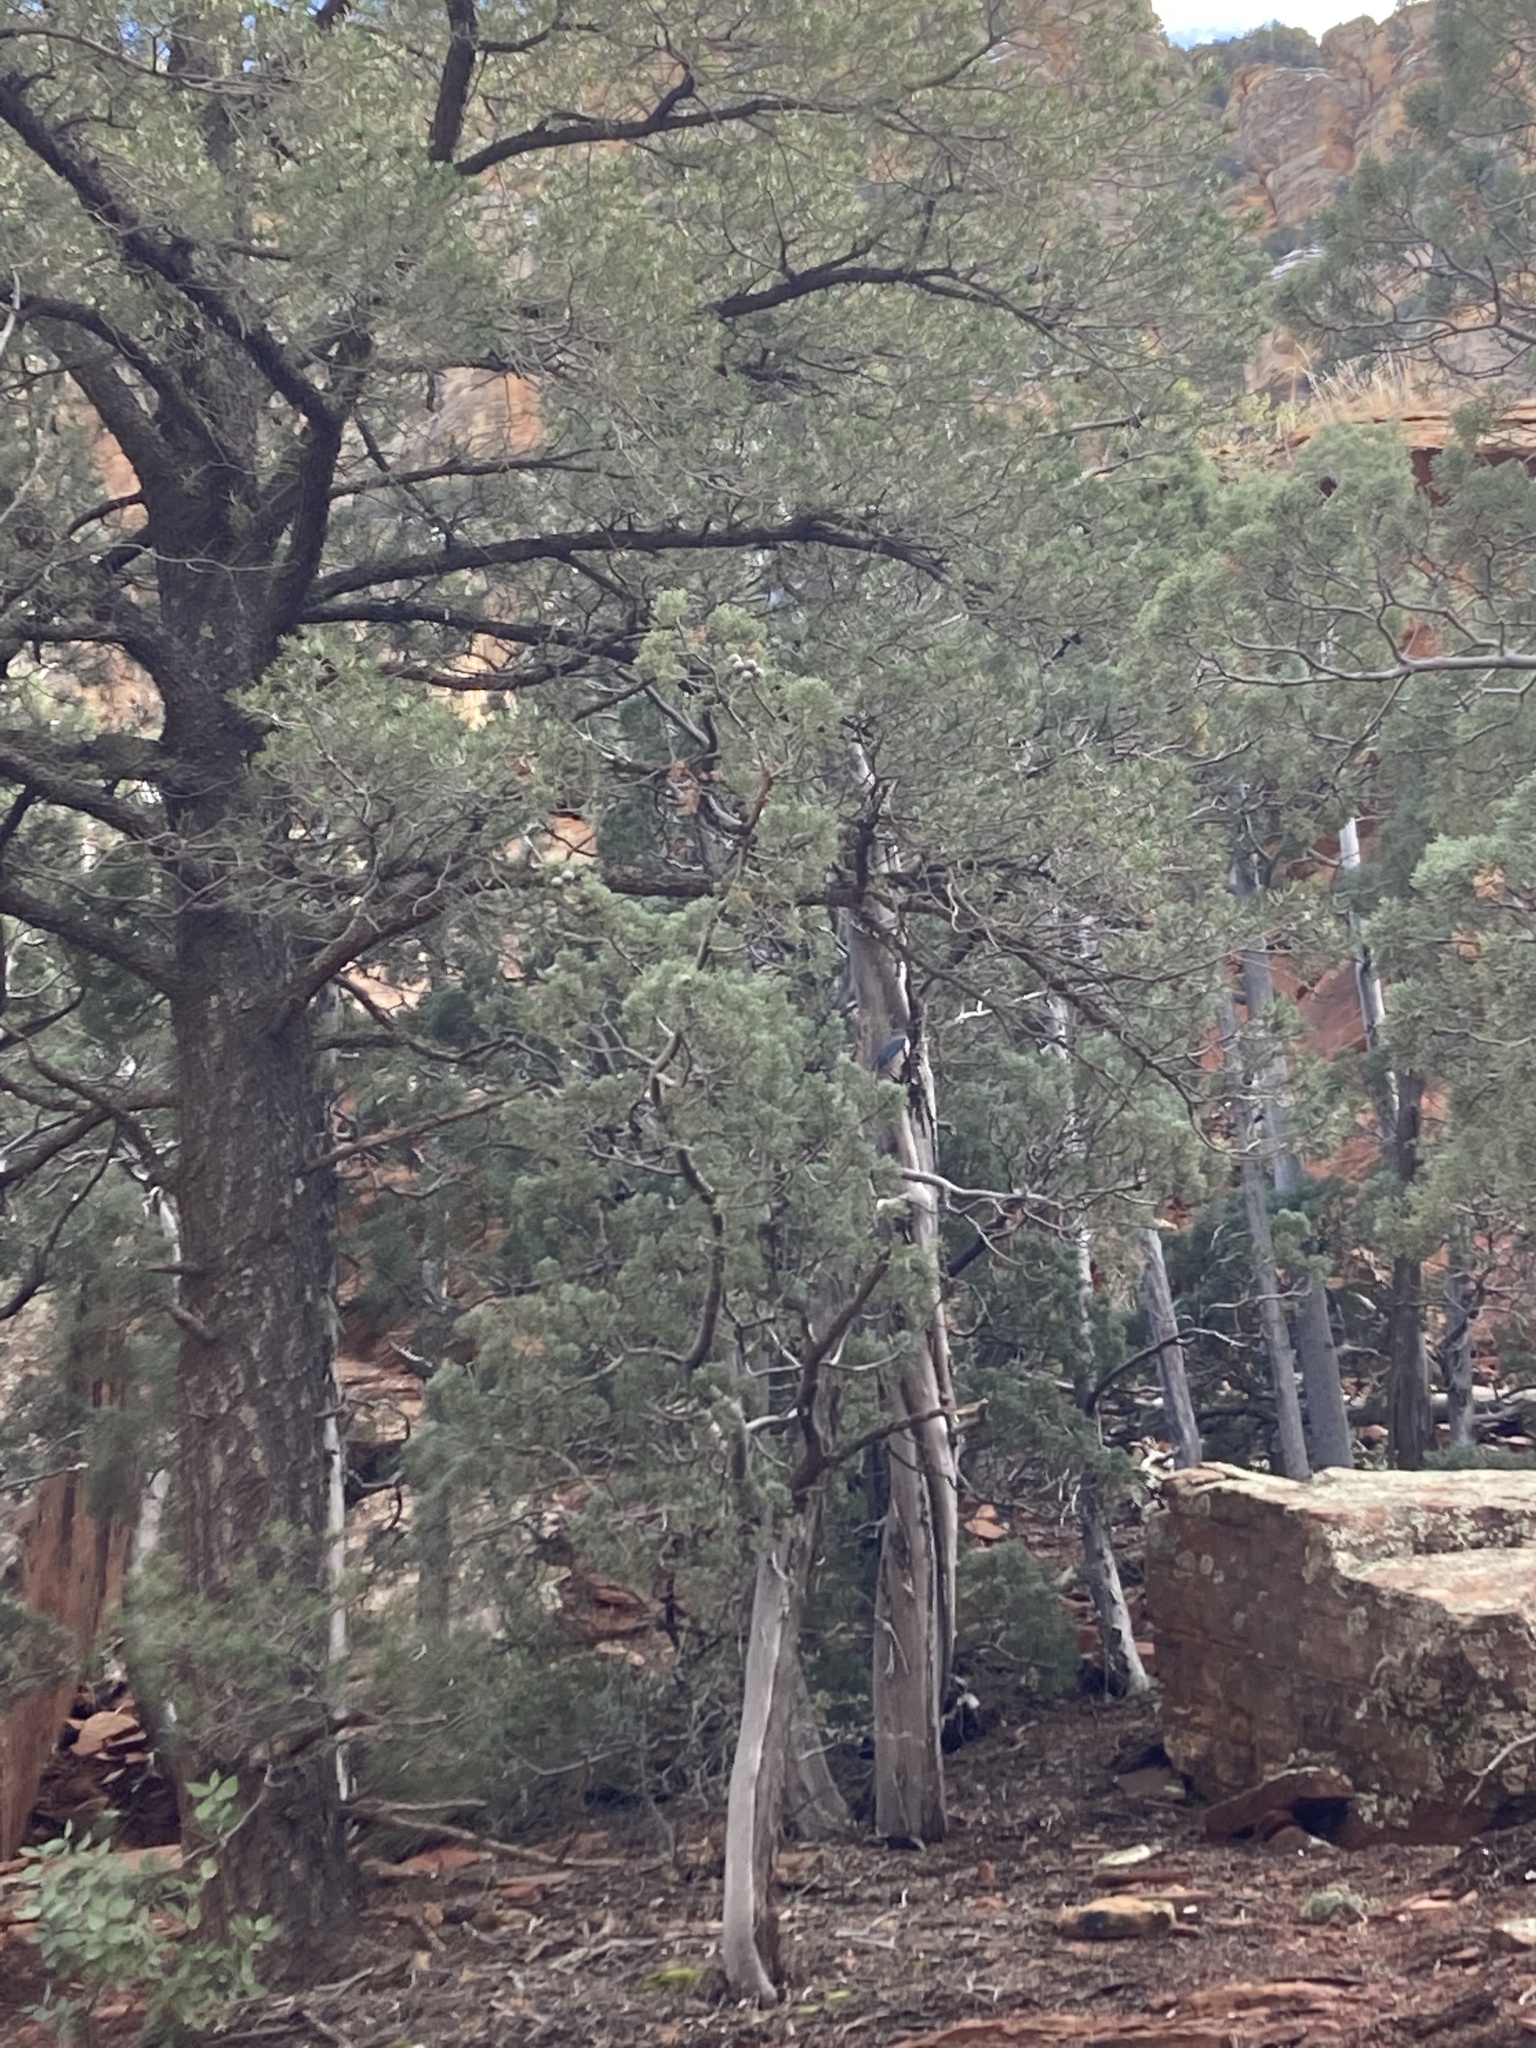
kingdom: Animalia
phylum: Chordata
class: Aves
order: Passeriformes
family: Corvidae
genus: Aphelocoma
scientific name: Aphelocoma woodhouseii
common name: Woodhouse's scrub-jay
